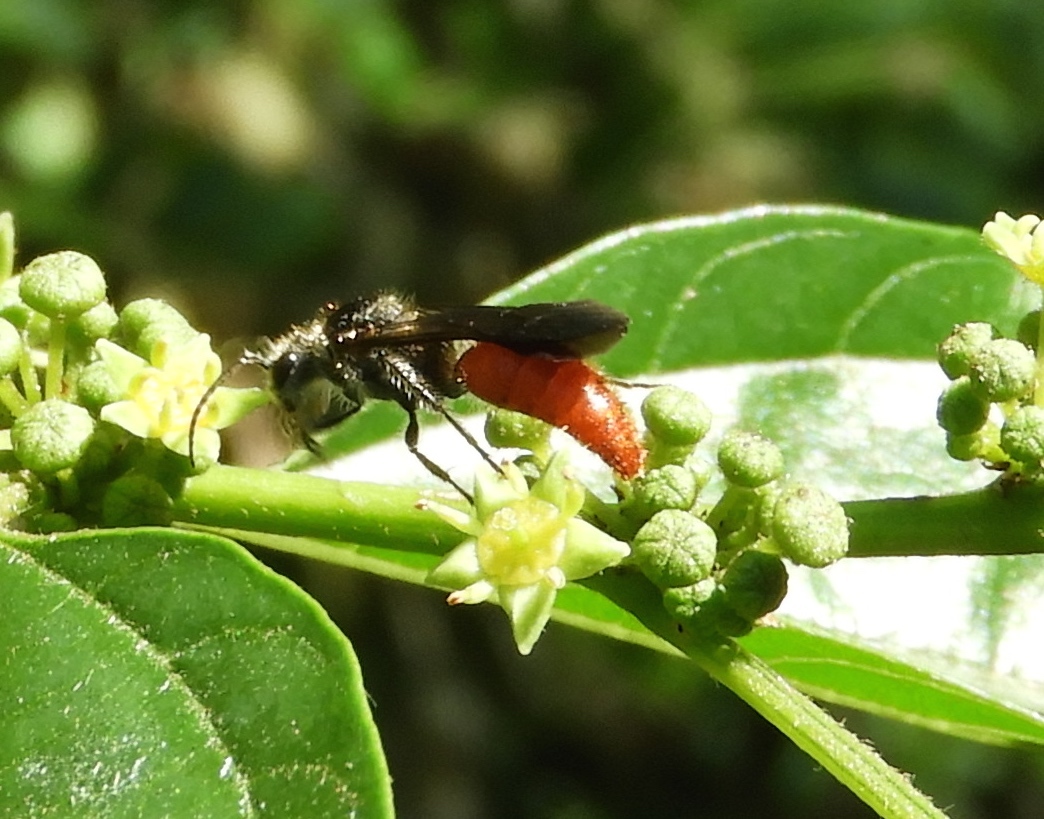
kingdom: Animalia
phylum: Arthropoda
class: Insecta
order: Hymenoptera
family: Mutillidae
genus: Timulla
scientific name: Timulla
